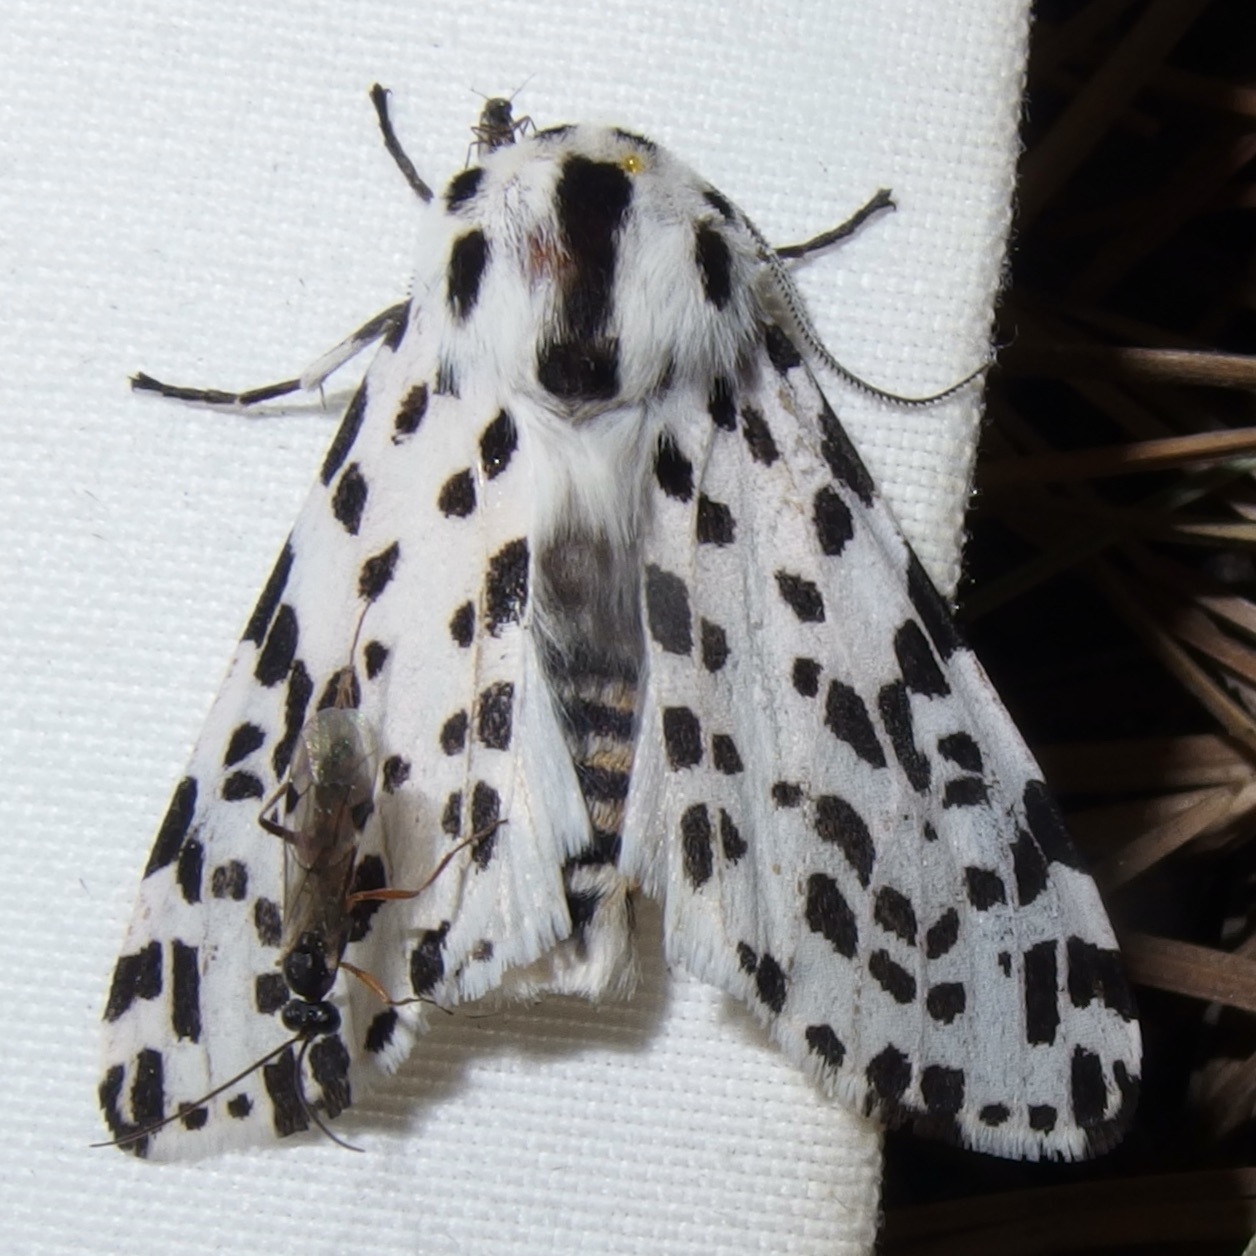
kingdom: Animalia
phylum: Arthropoda
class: Insecta
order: Lepidoptera
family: Erebidae
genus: Hypercompe
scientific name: Hypercompe permaculata
